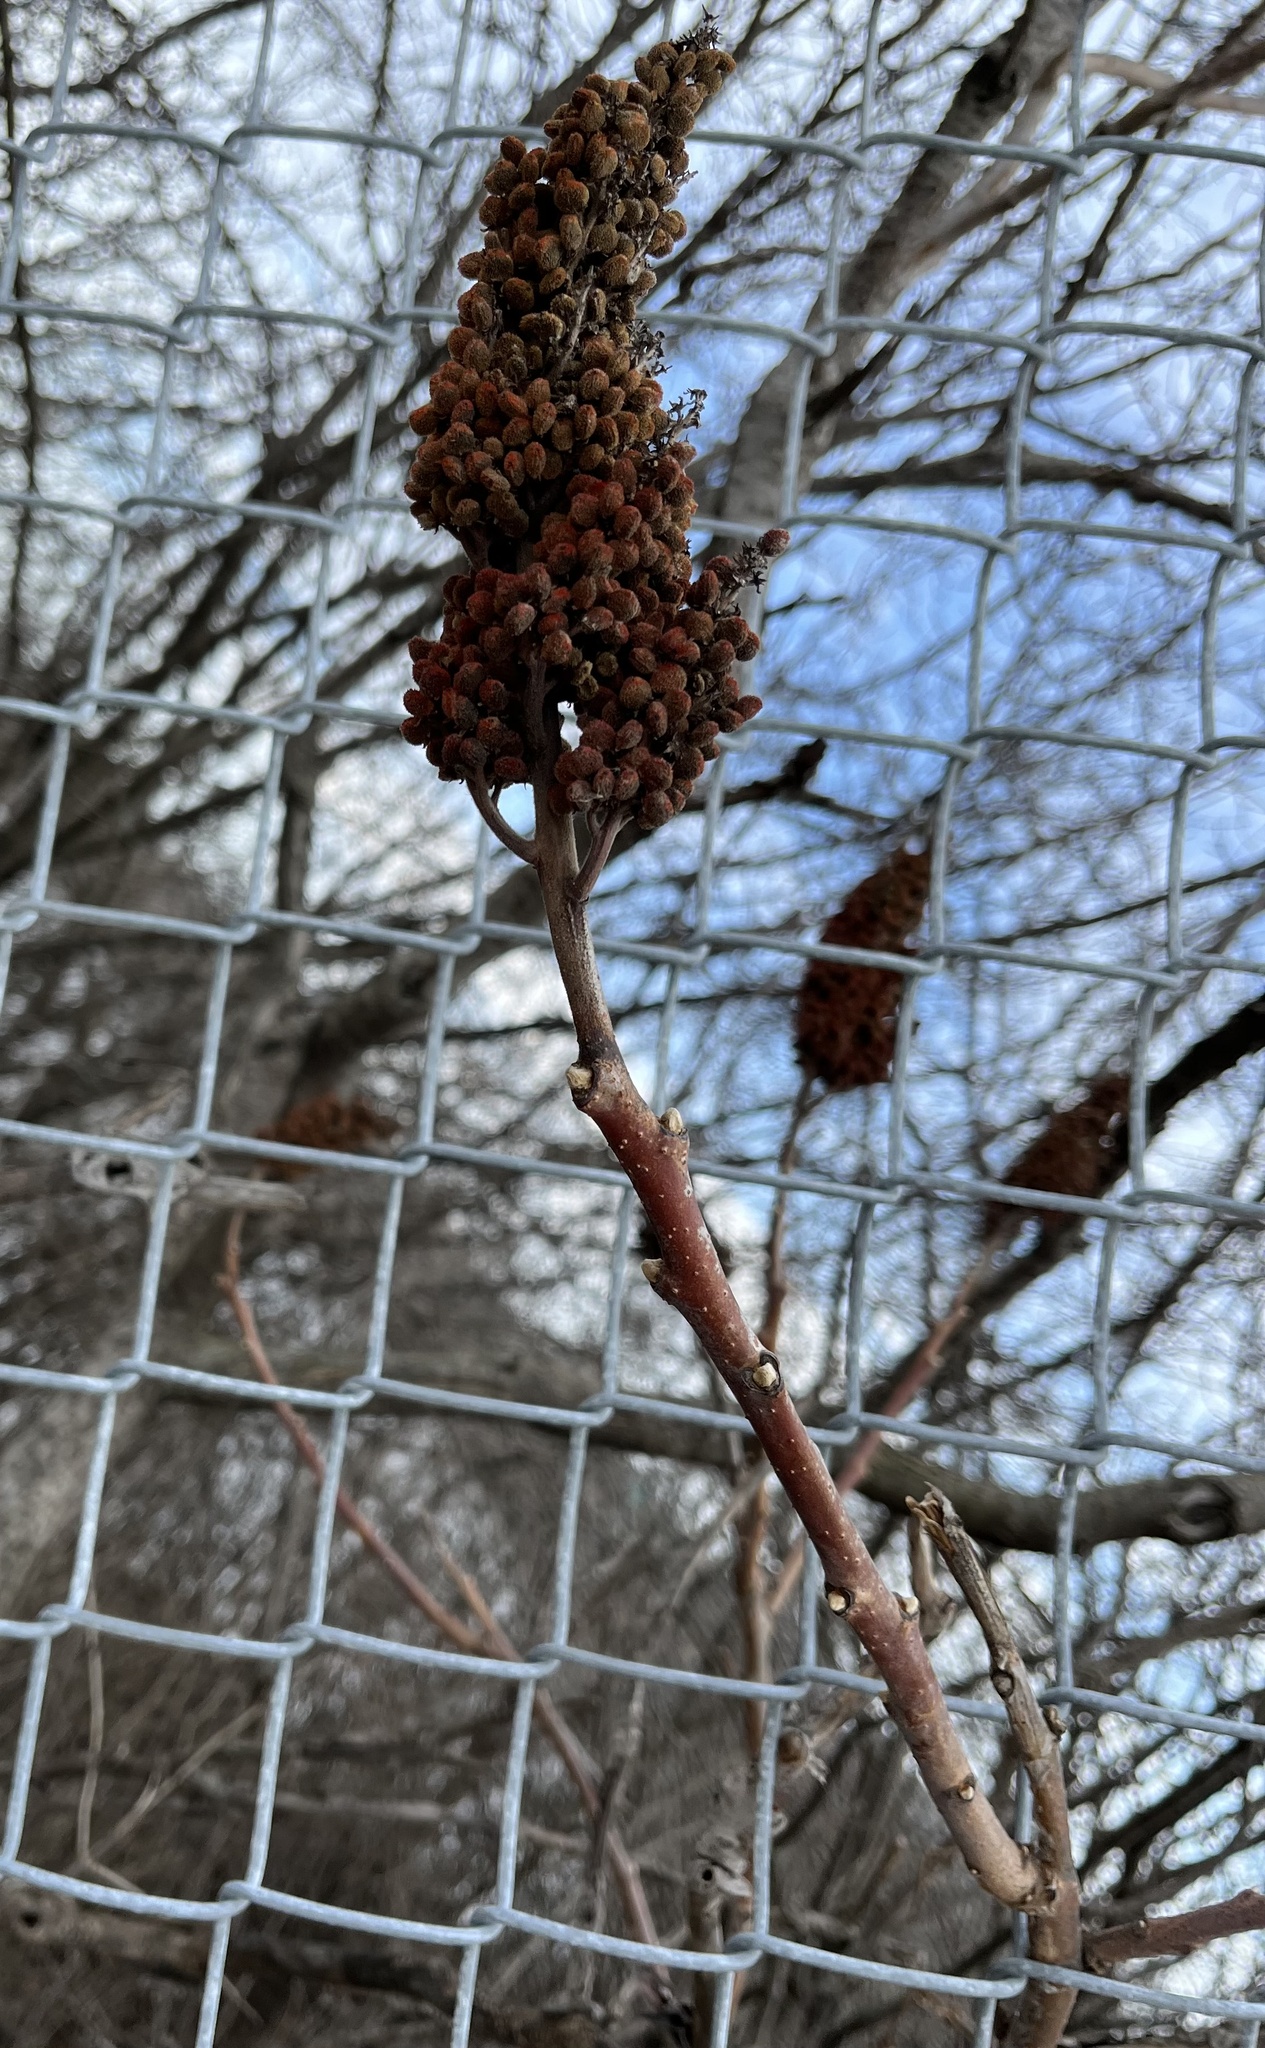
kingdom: Plantae
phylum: Tracheophyta
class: Magnoliopsida
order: Sapindales
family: Anacardiaceae
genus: Rhus
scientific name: Rhus glabra
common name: Scarlet sumac
